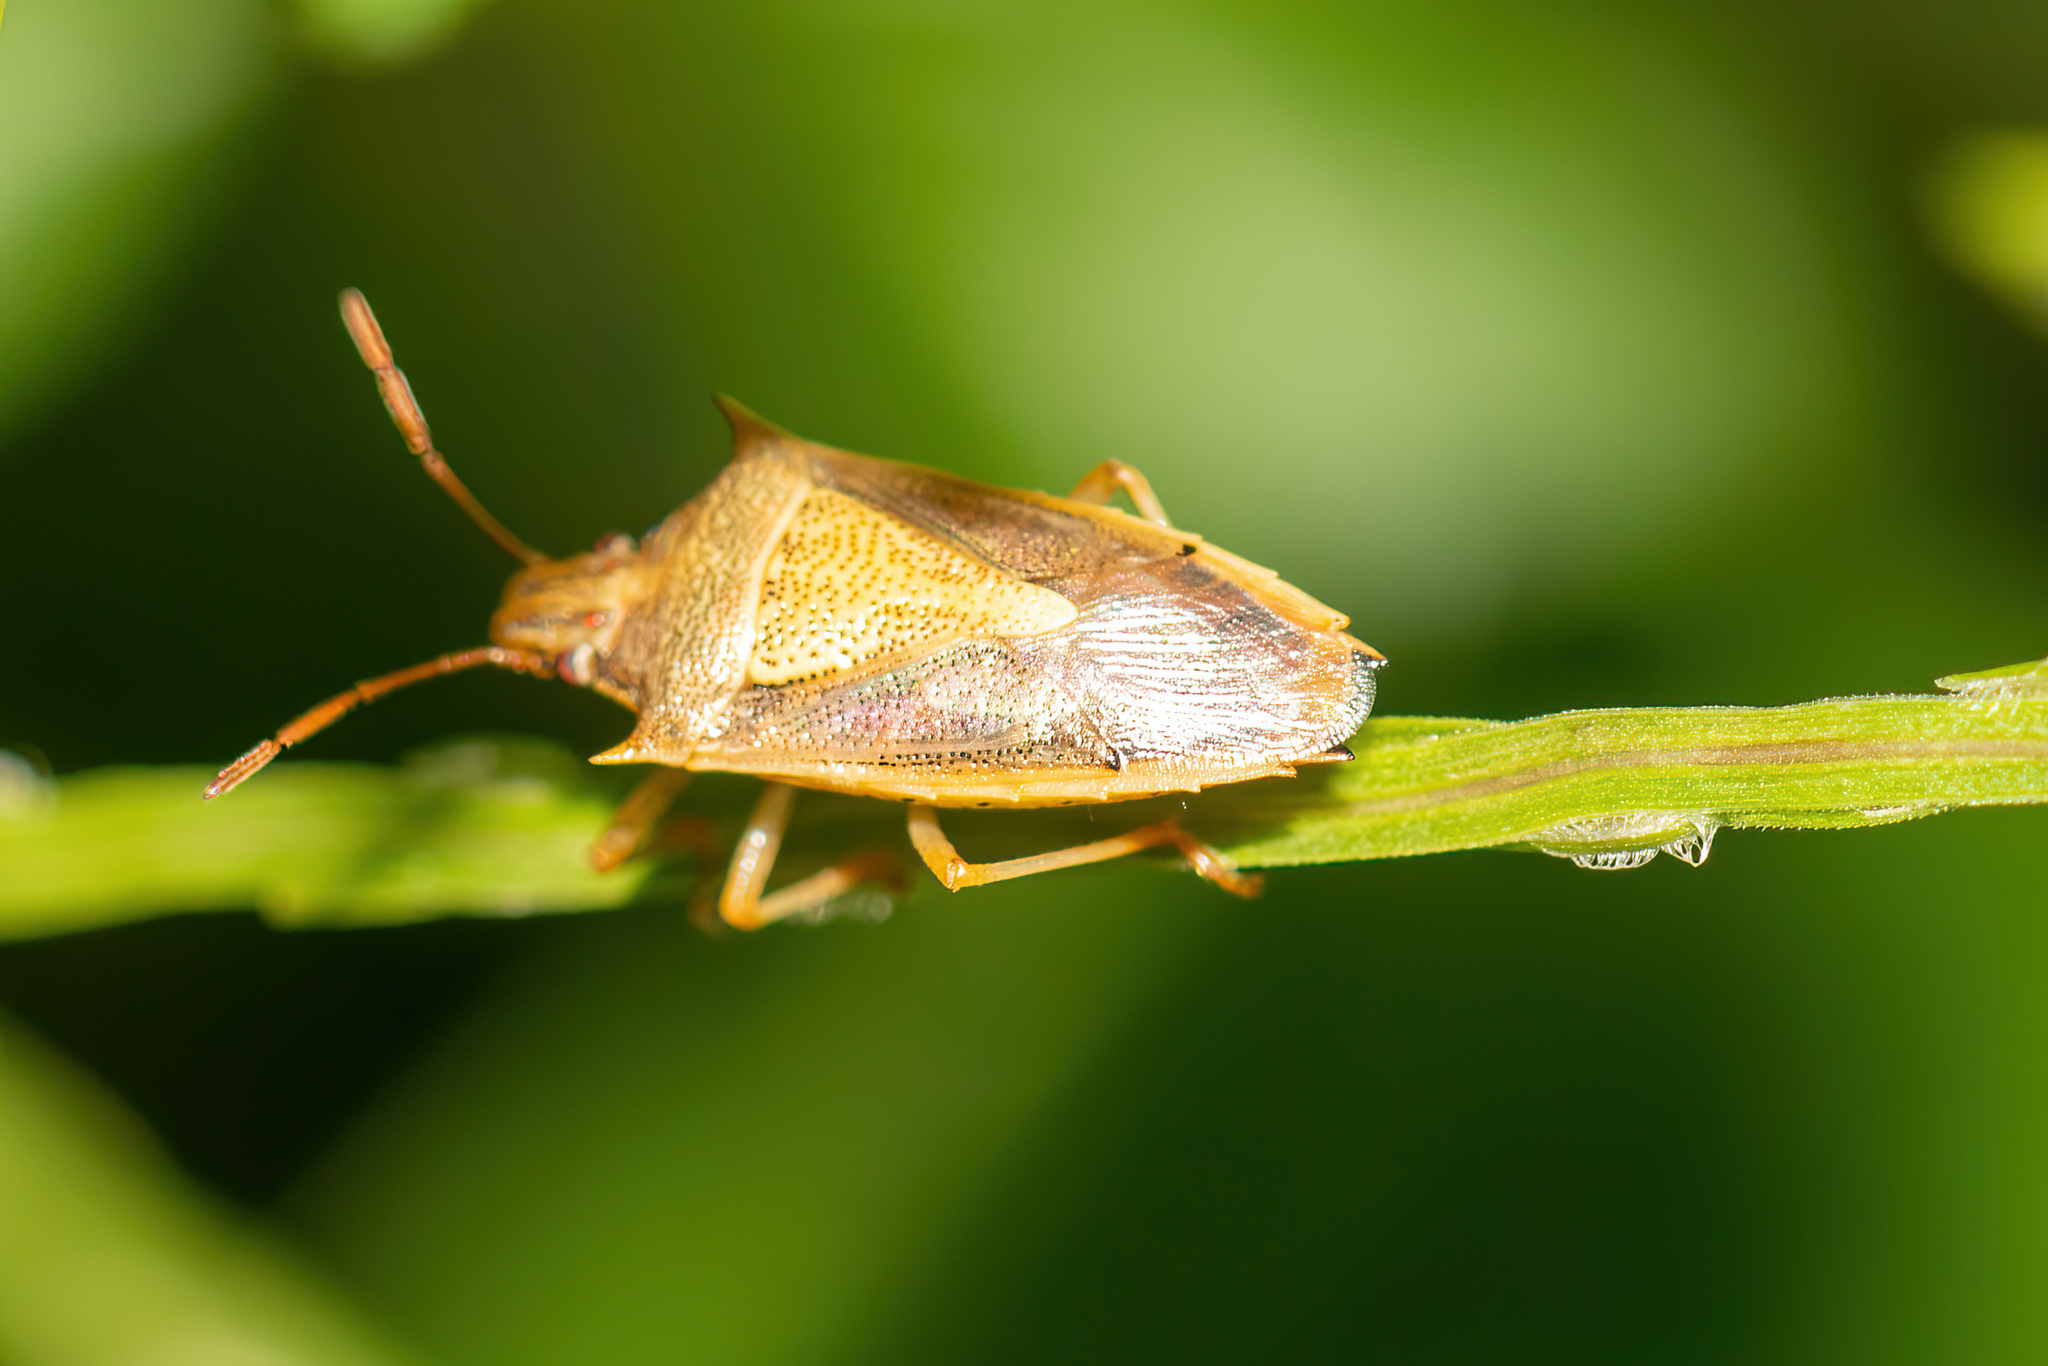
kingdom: Animalia
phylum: Arthropoda
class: Insecta
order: Hemiptera
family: Pentatomidae
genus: Oebalus
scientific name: Oebalus pugnax
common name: Rice stink bug
